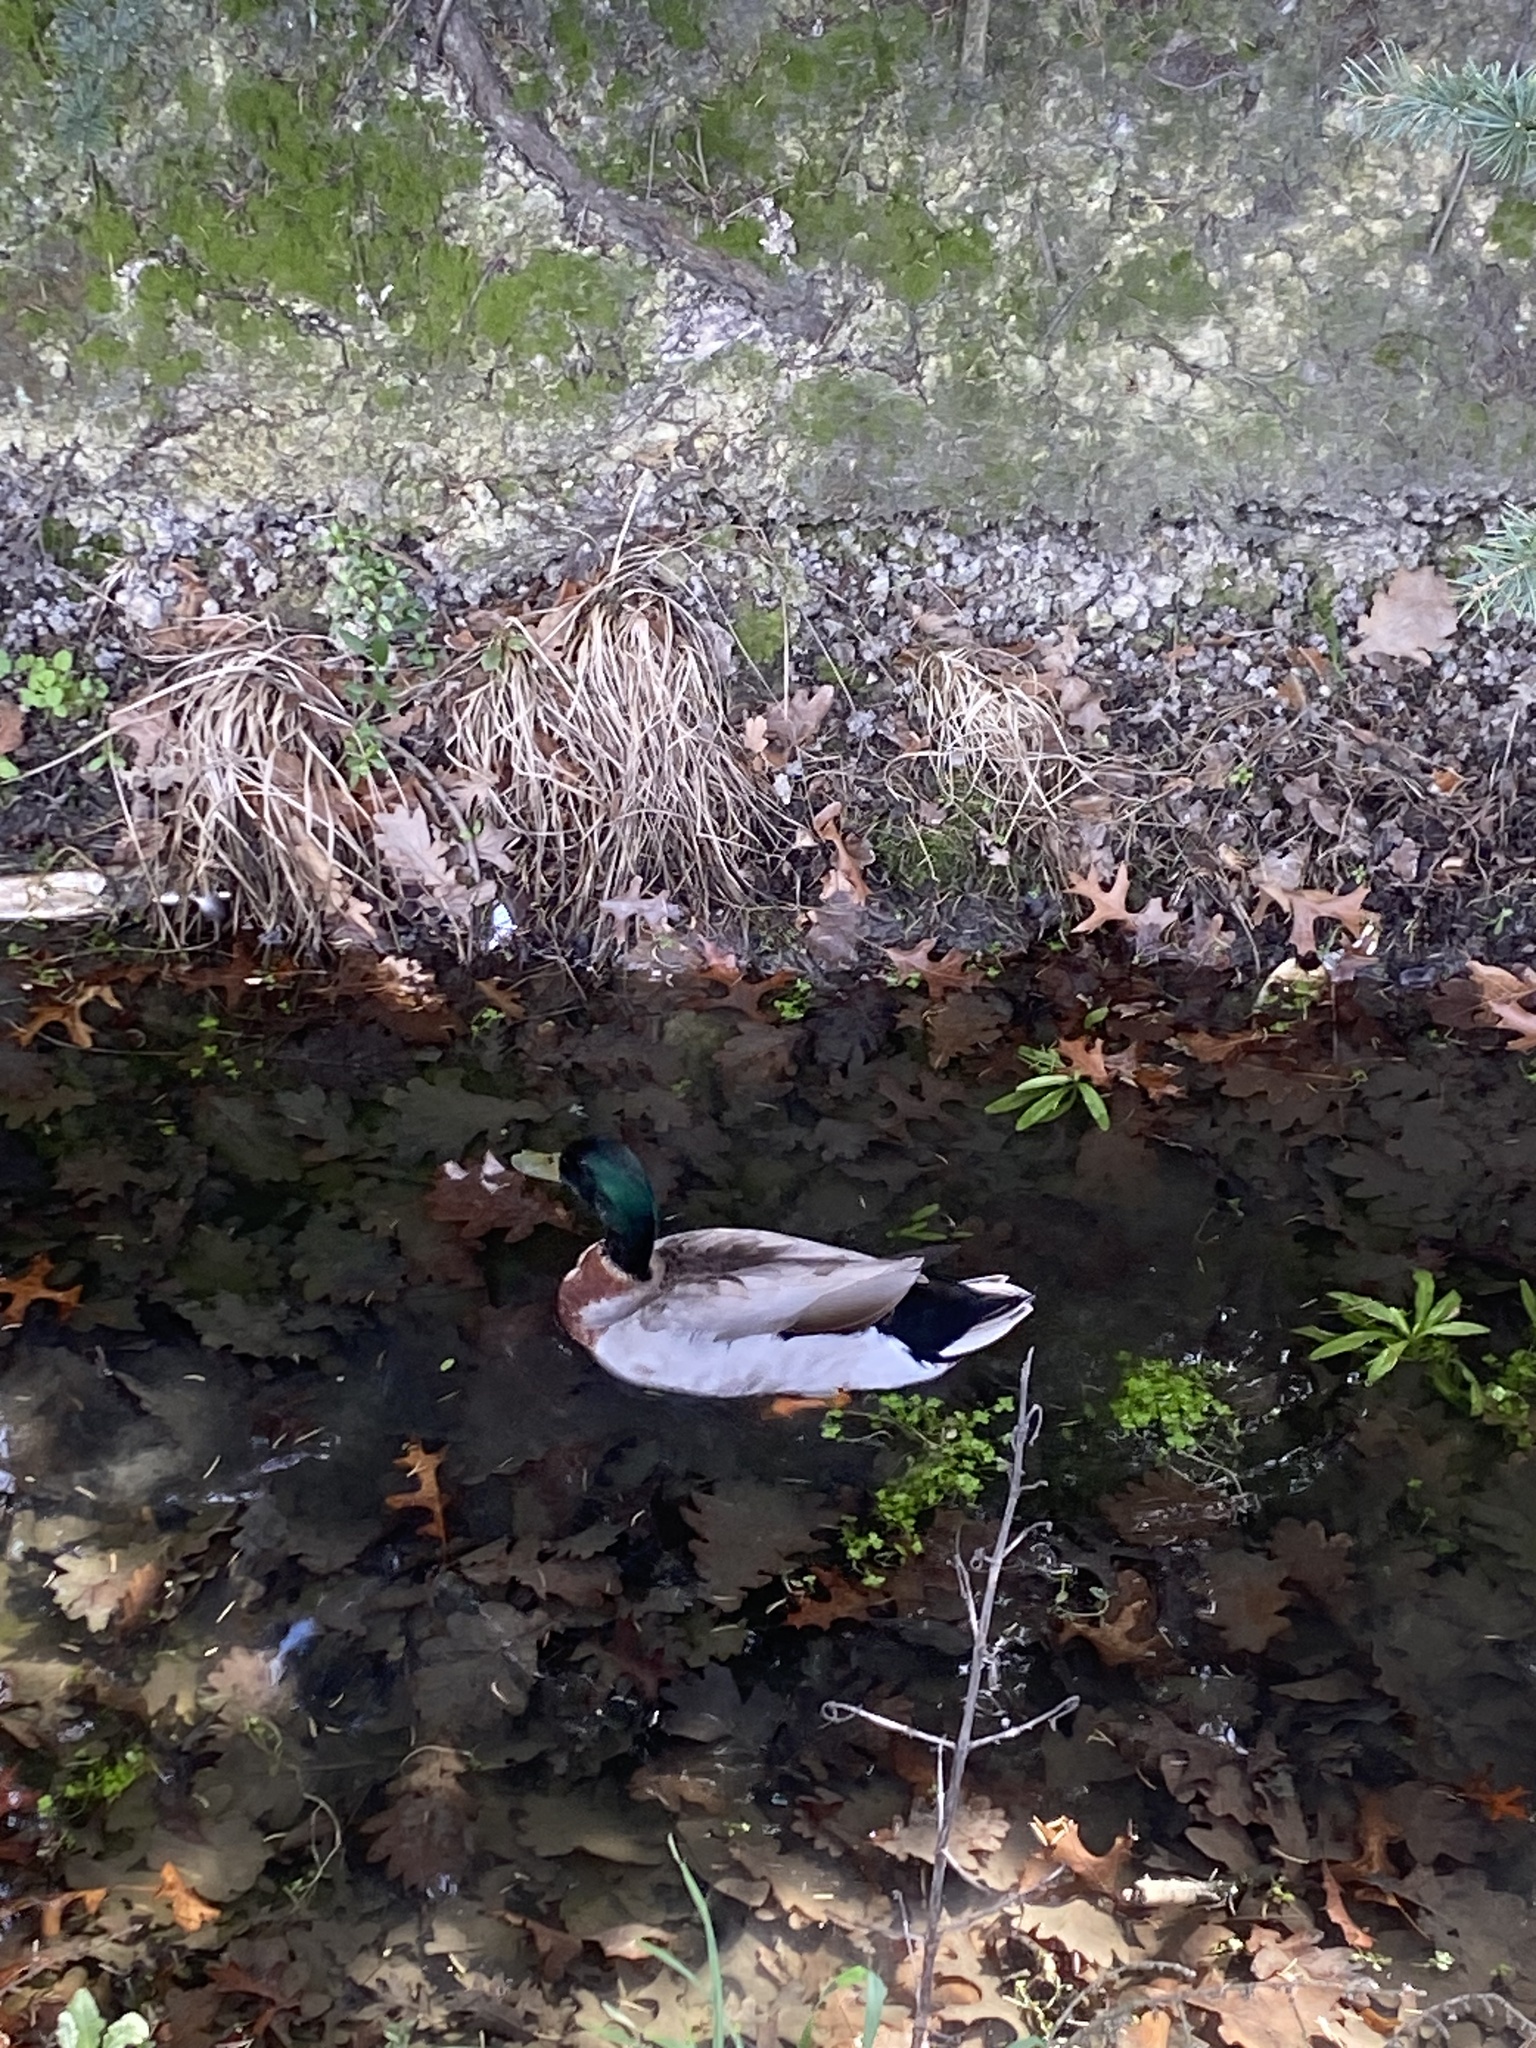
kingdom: Animalia
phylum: Chordata
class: Aves
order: Anseriformes
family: Anatidae
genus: Anas
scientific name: Anas platyrhynchos
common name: Mallard
